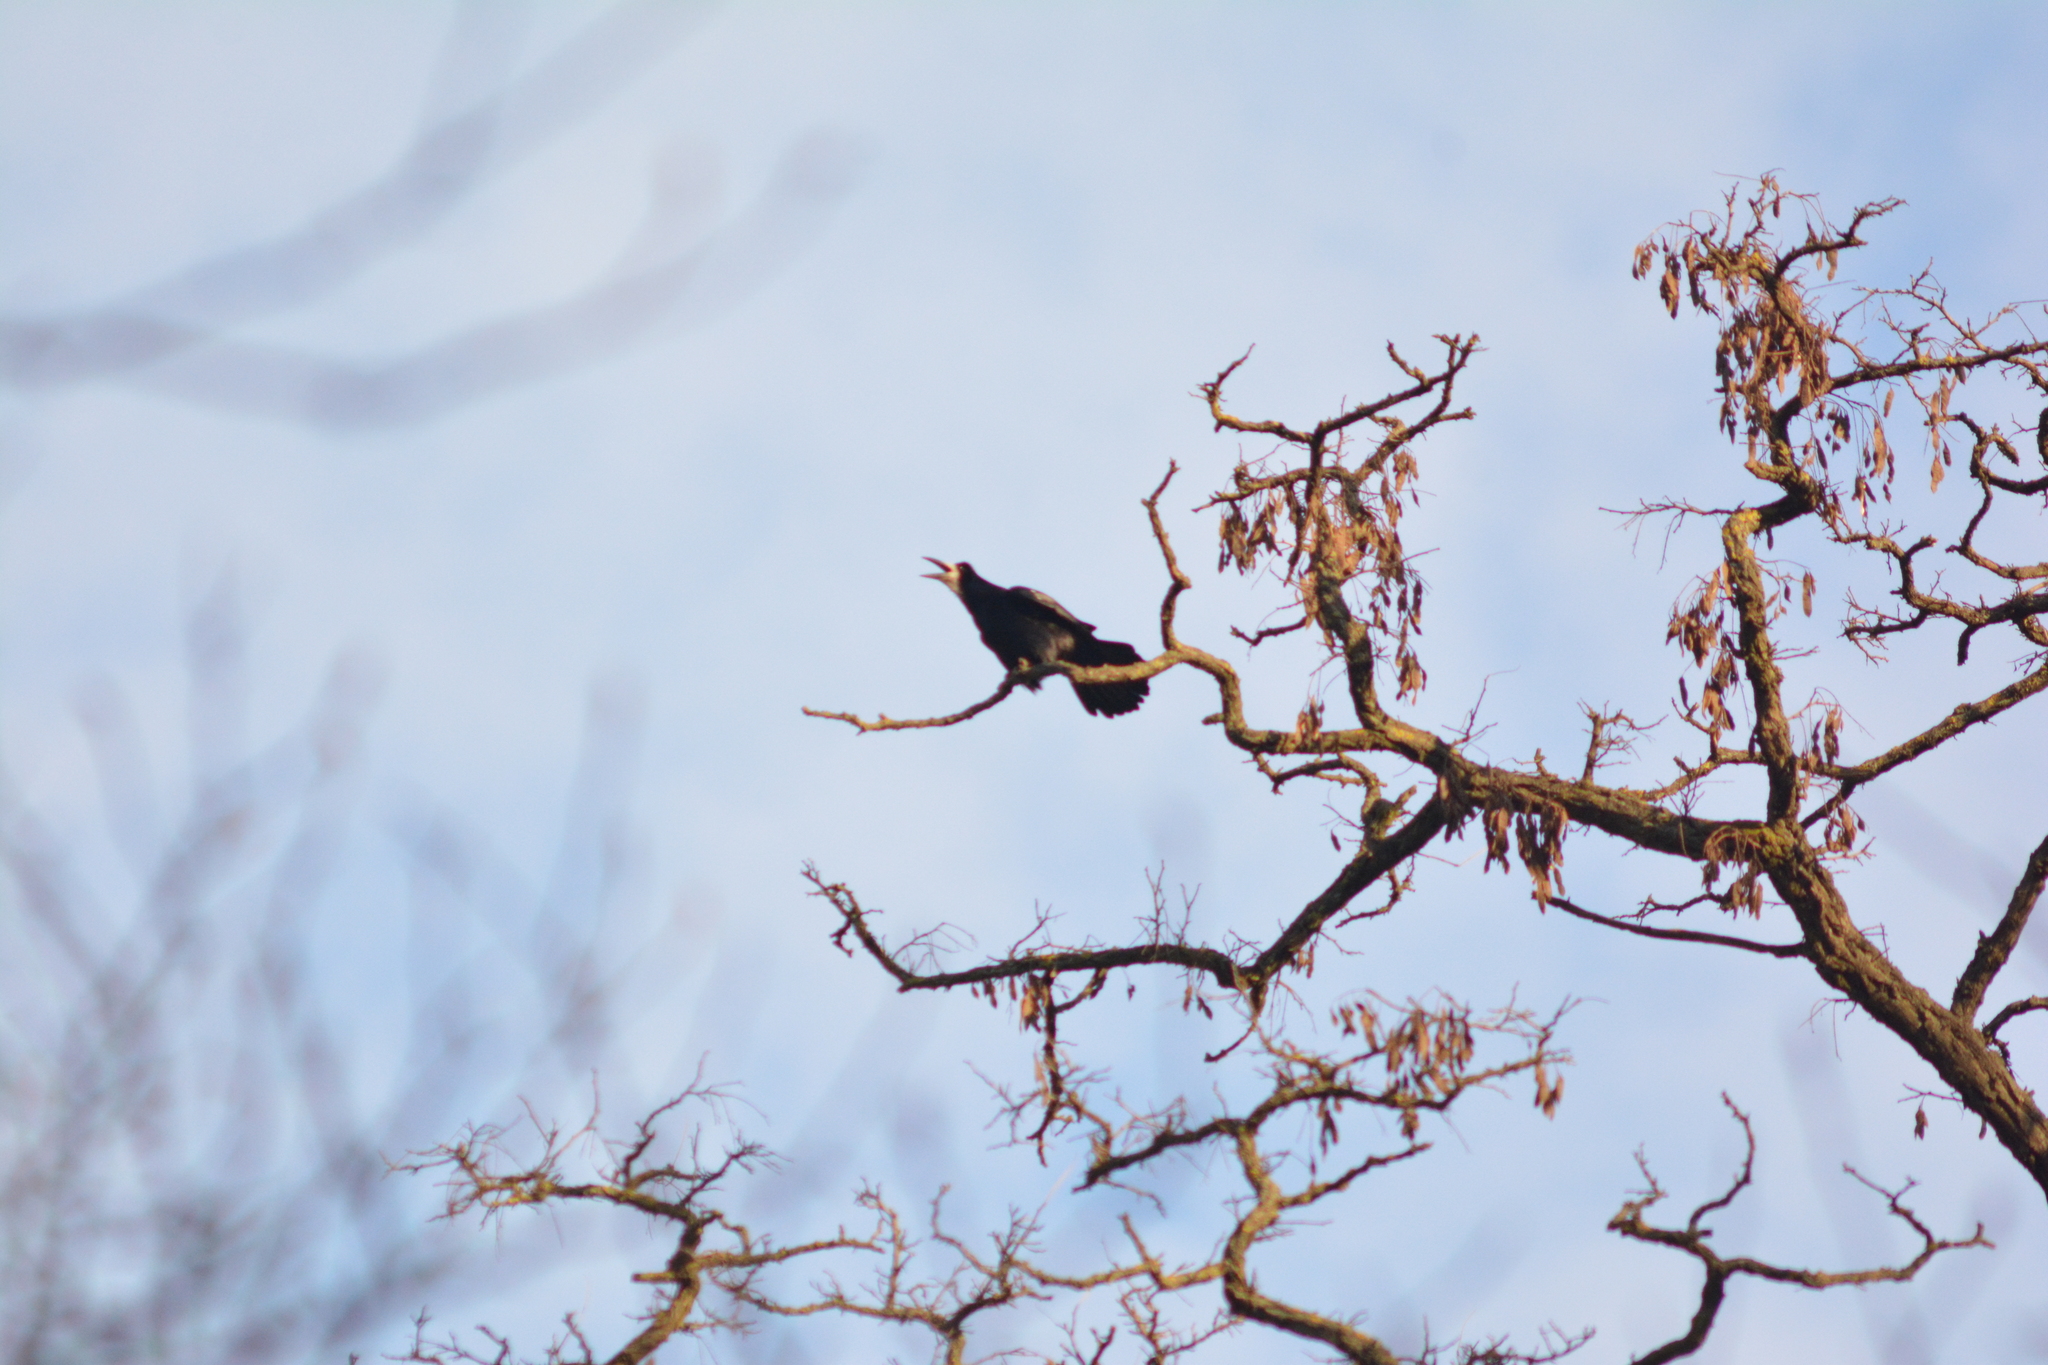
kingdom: Animalia
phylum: Chordata
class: Aves
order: Passeriformes
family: Corvidae
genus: Corvus
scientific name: Corvus frugilegus
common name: Rook
